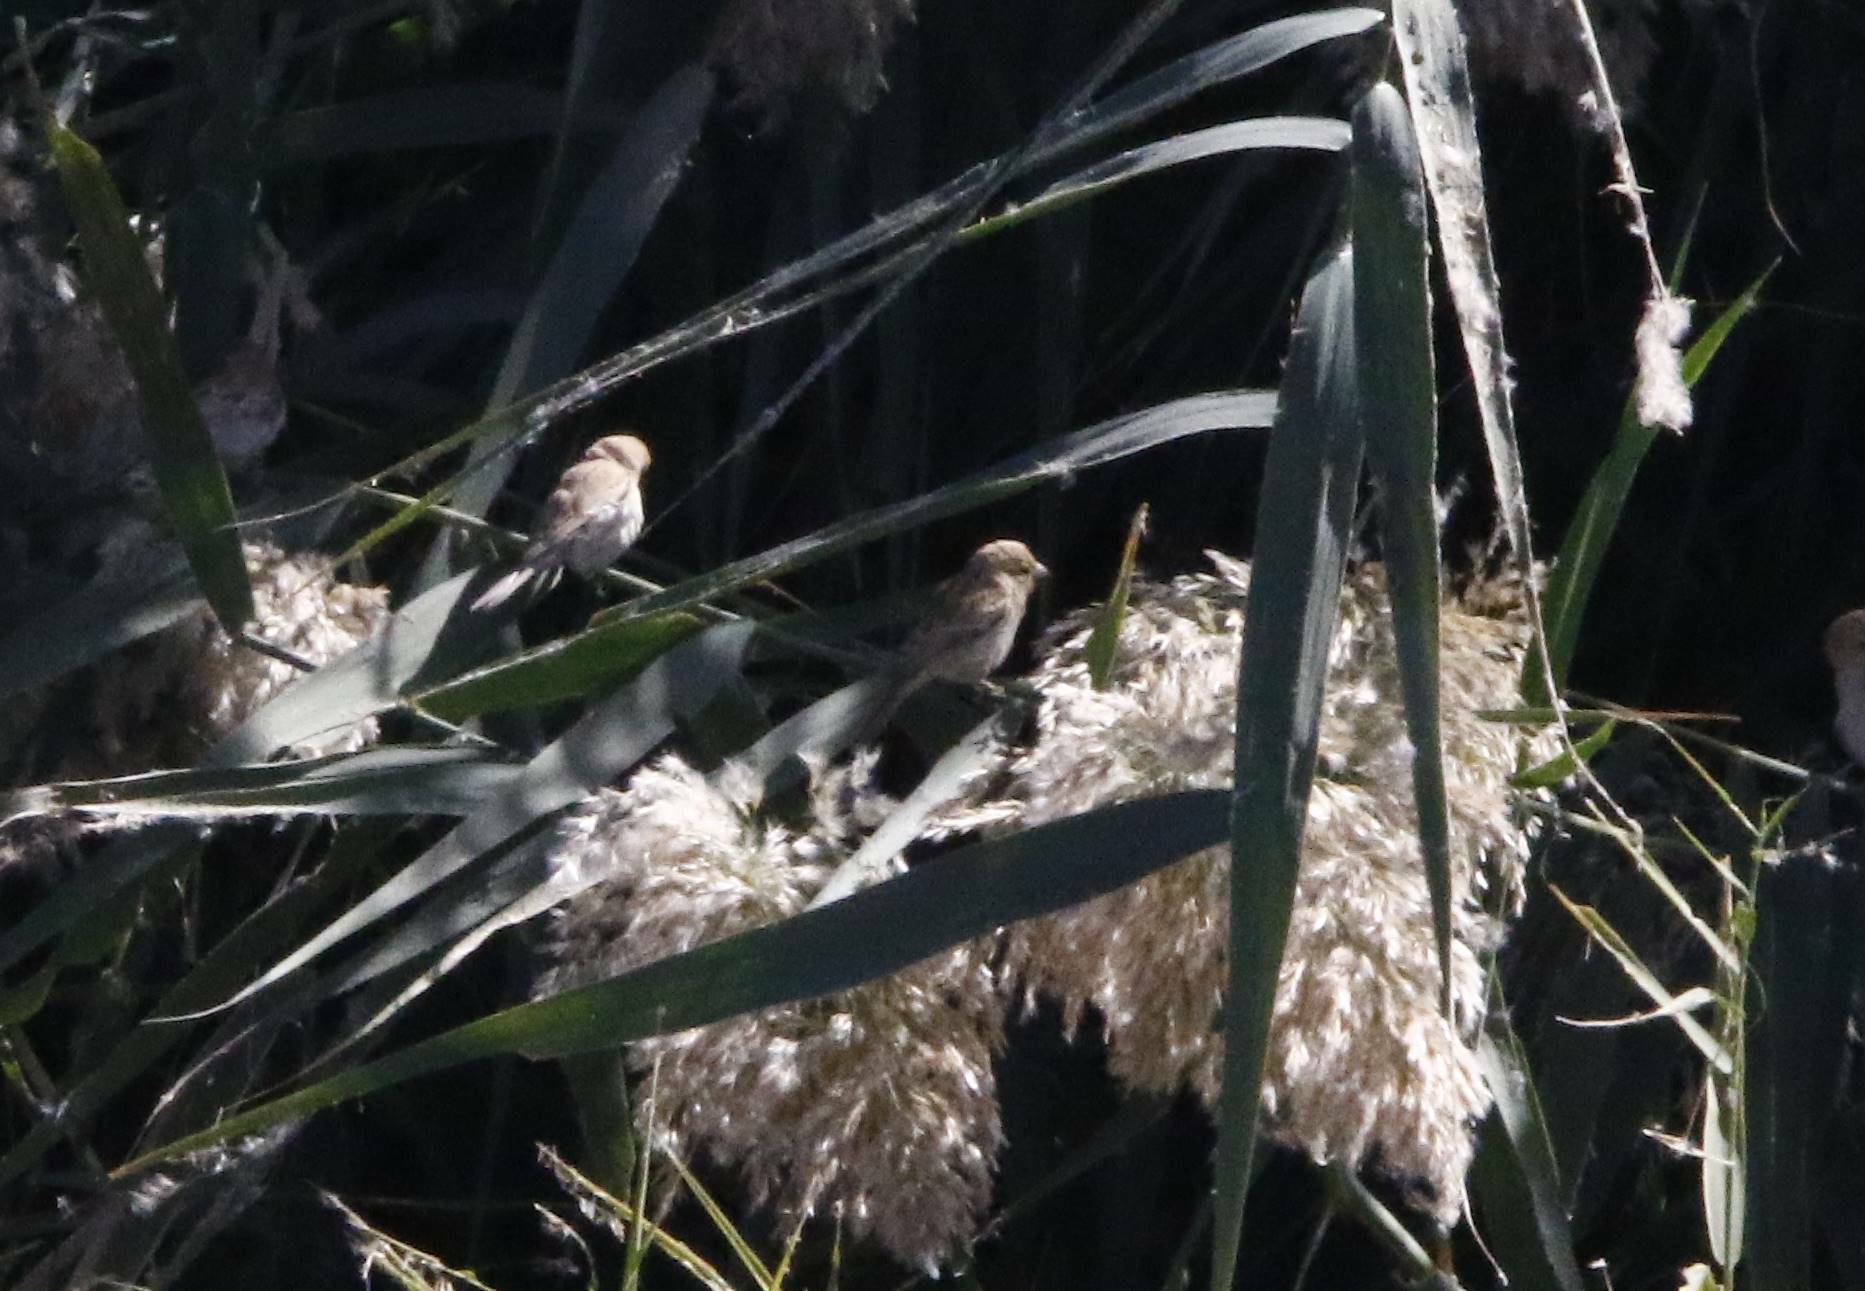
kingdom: Animalia
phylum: Chordata
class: Aves
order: Passeriformes
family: Passeridae
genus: Passer
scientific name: Passer luteus
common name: Sudan golden sparrow
